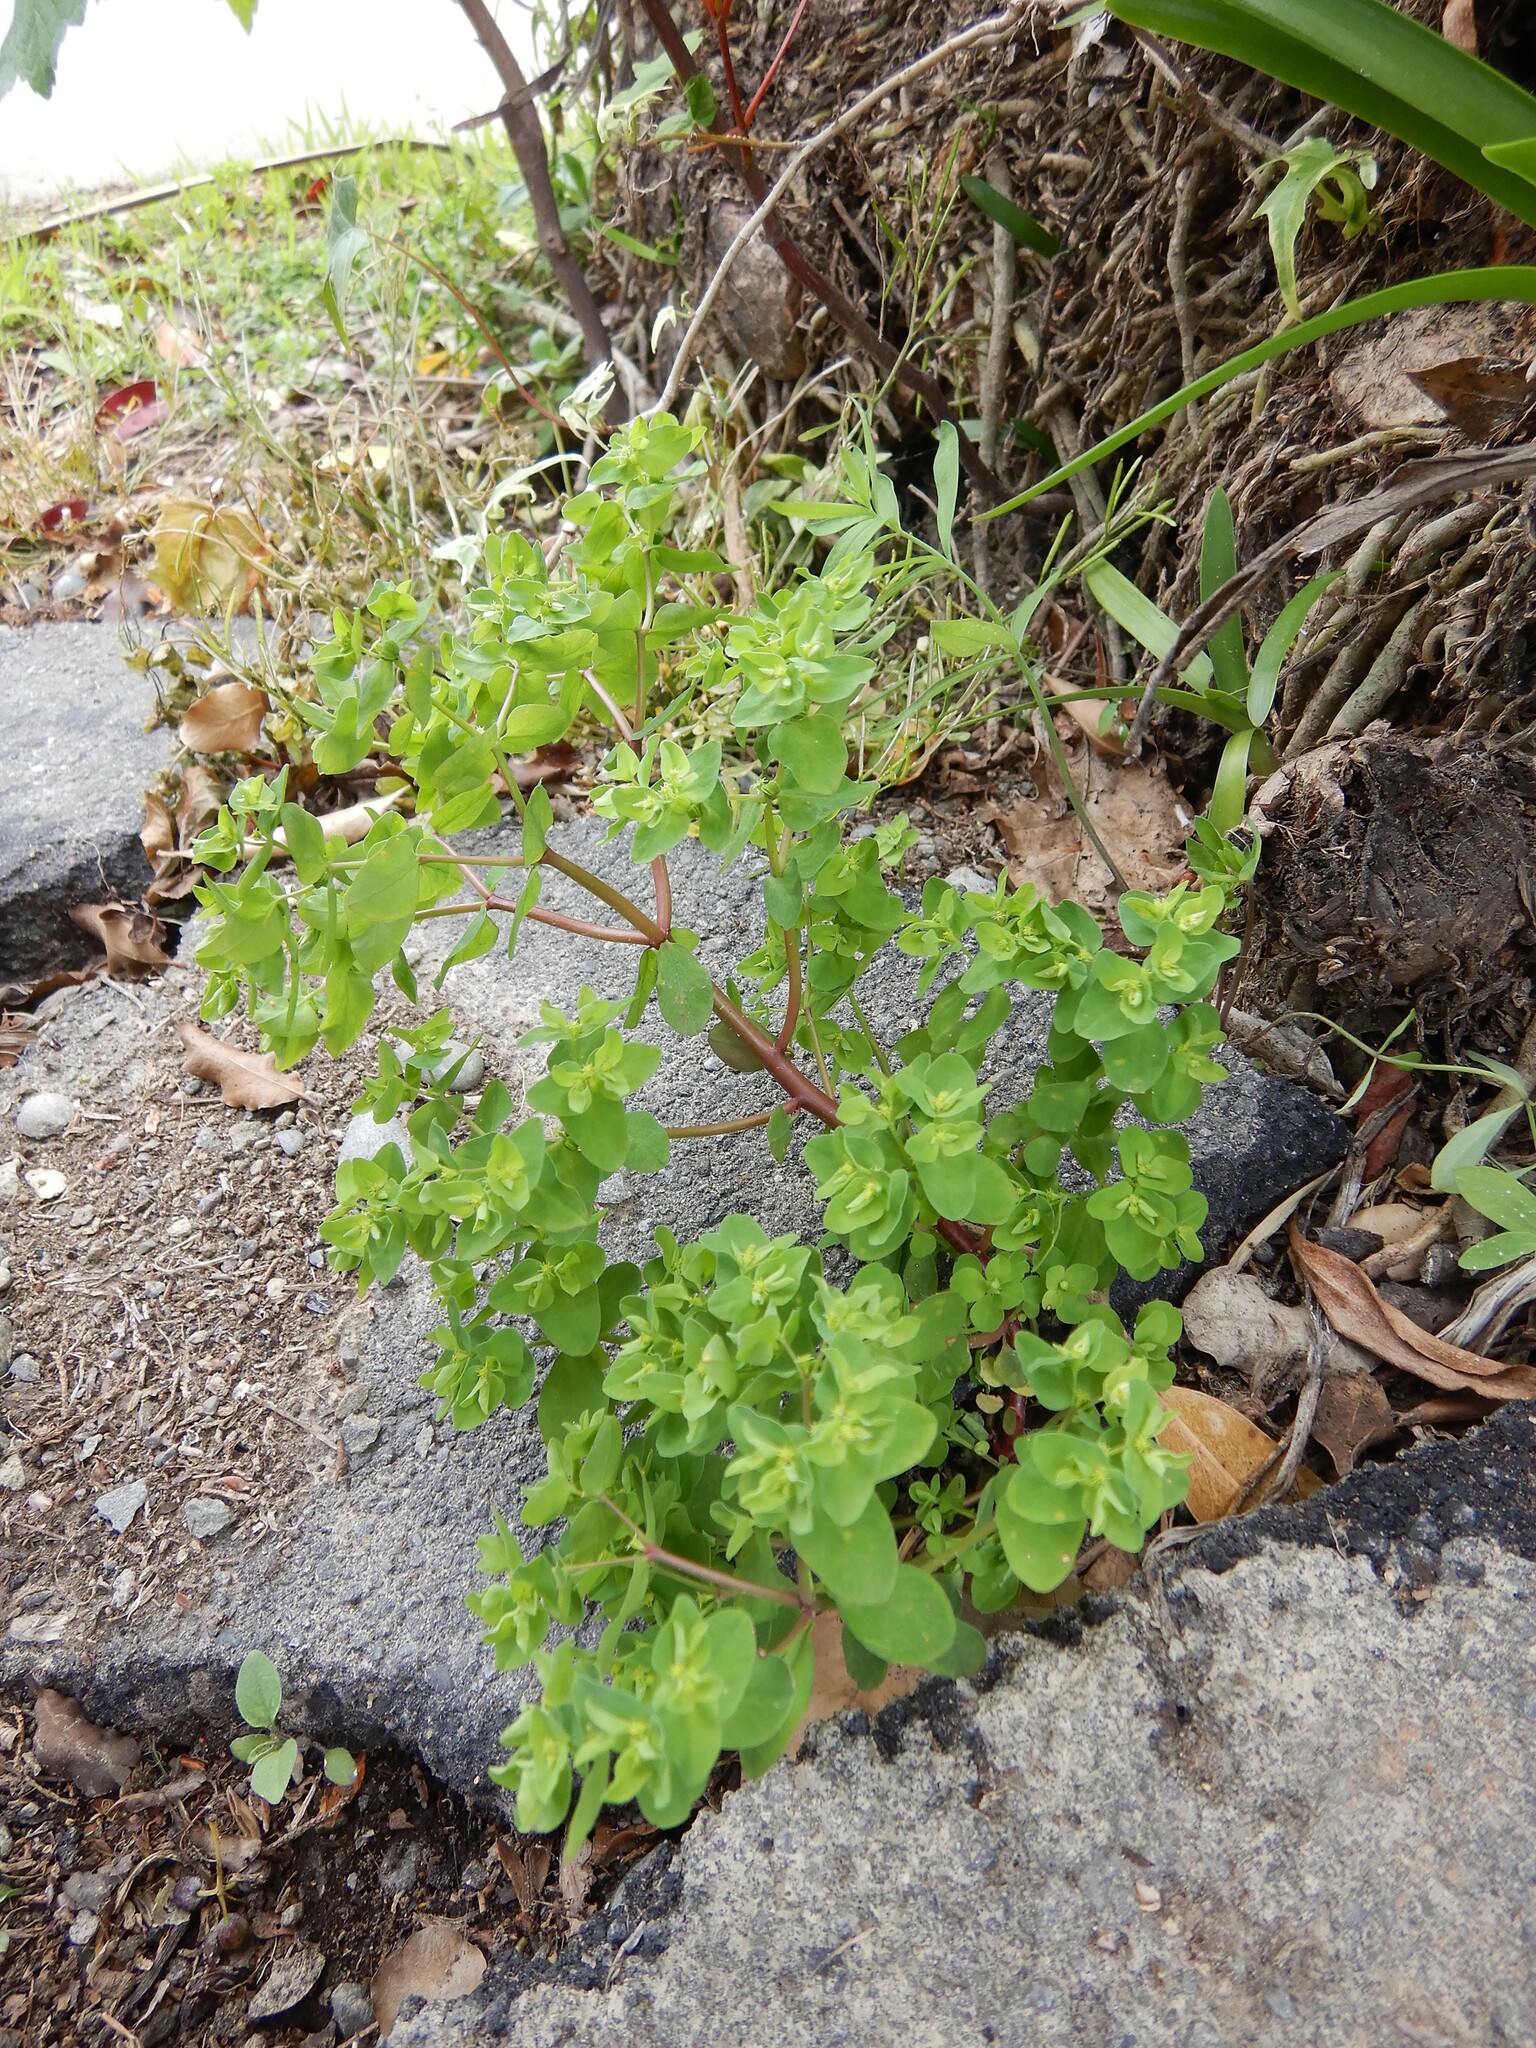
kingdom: Plantae
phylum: Tracheophyta
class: Magnoliopsida
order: Malpighiales
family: Euphorbiaceae
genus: Euphorbia
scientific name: Euphorbia peplus
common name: Petty spurge
